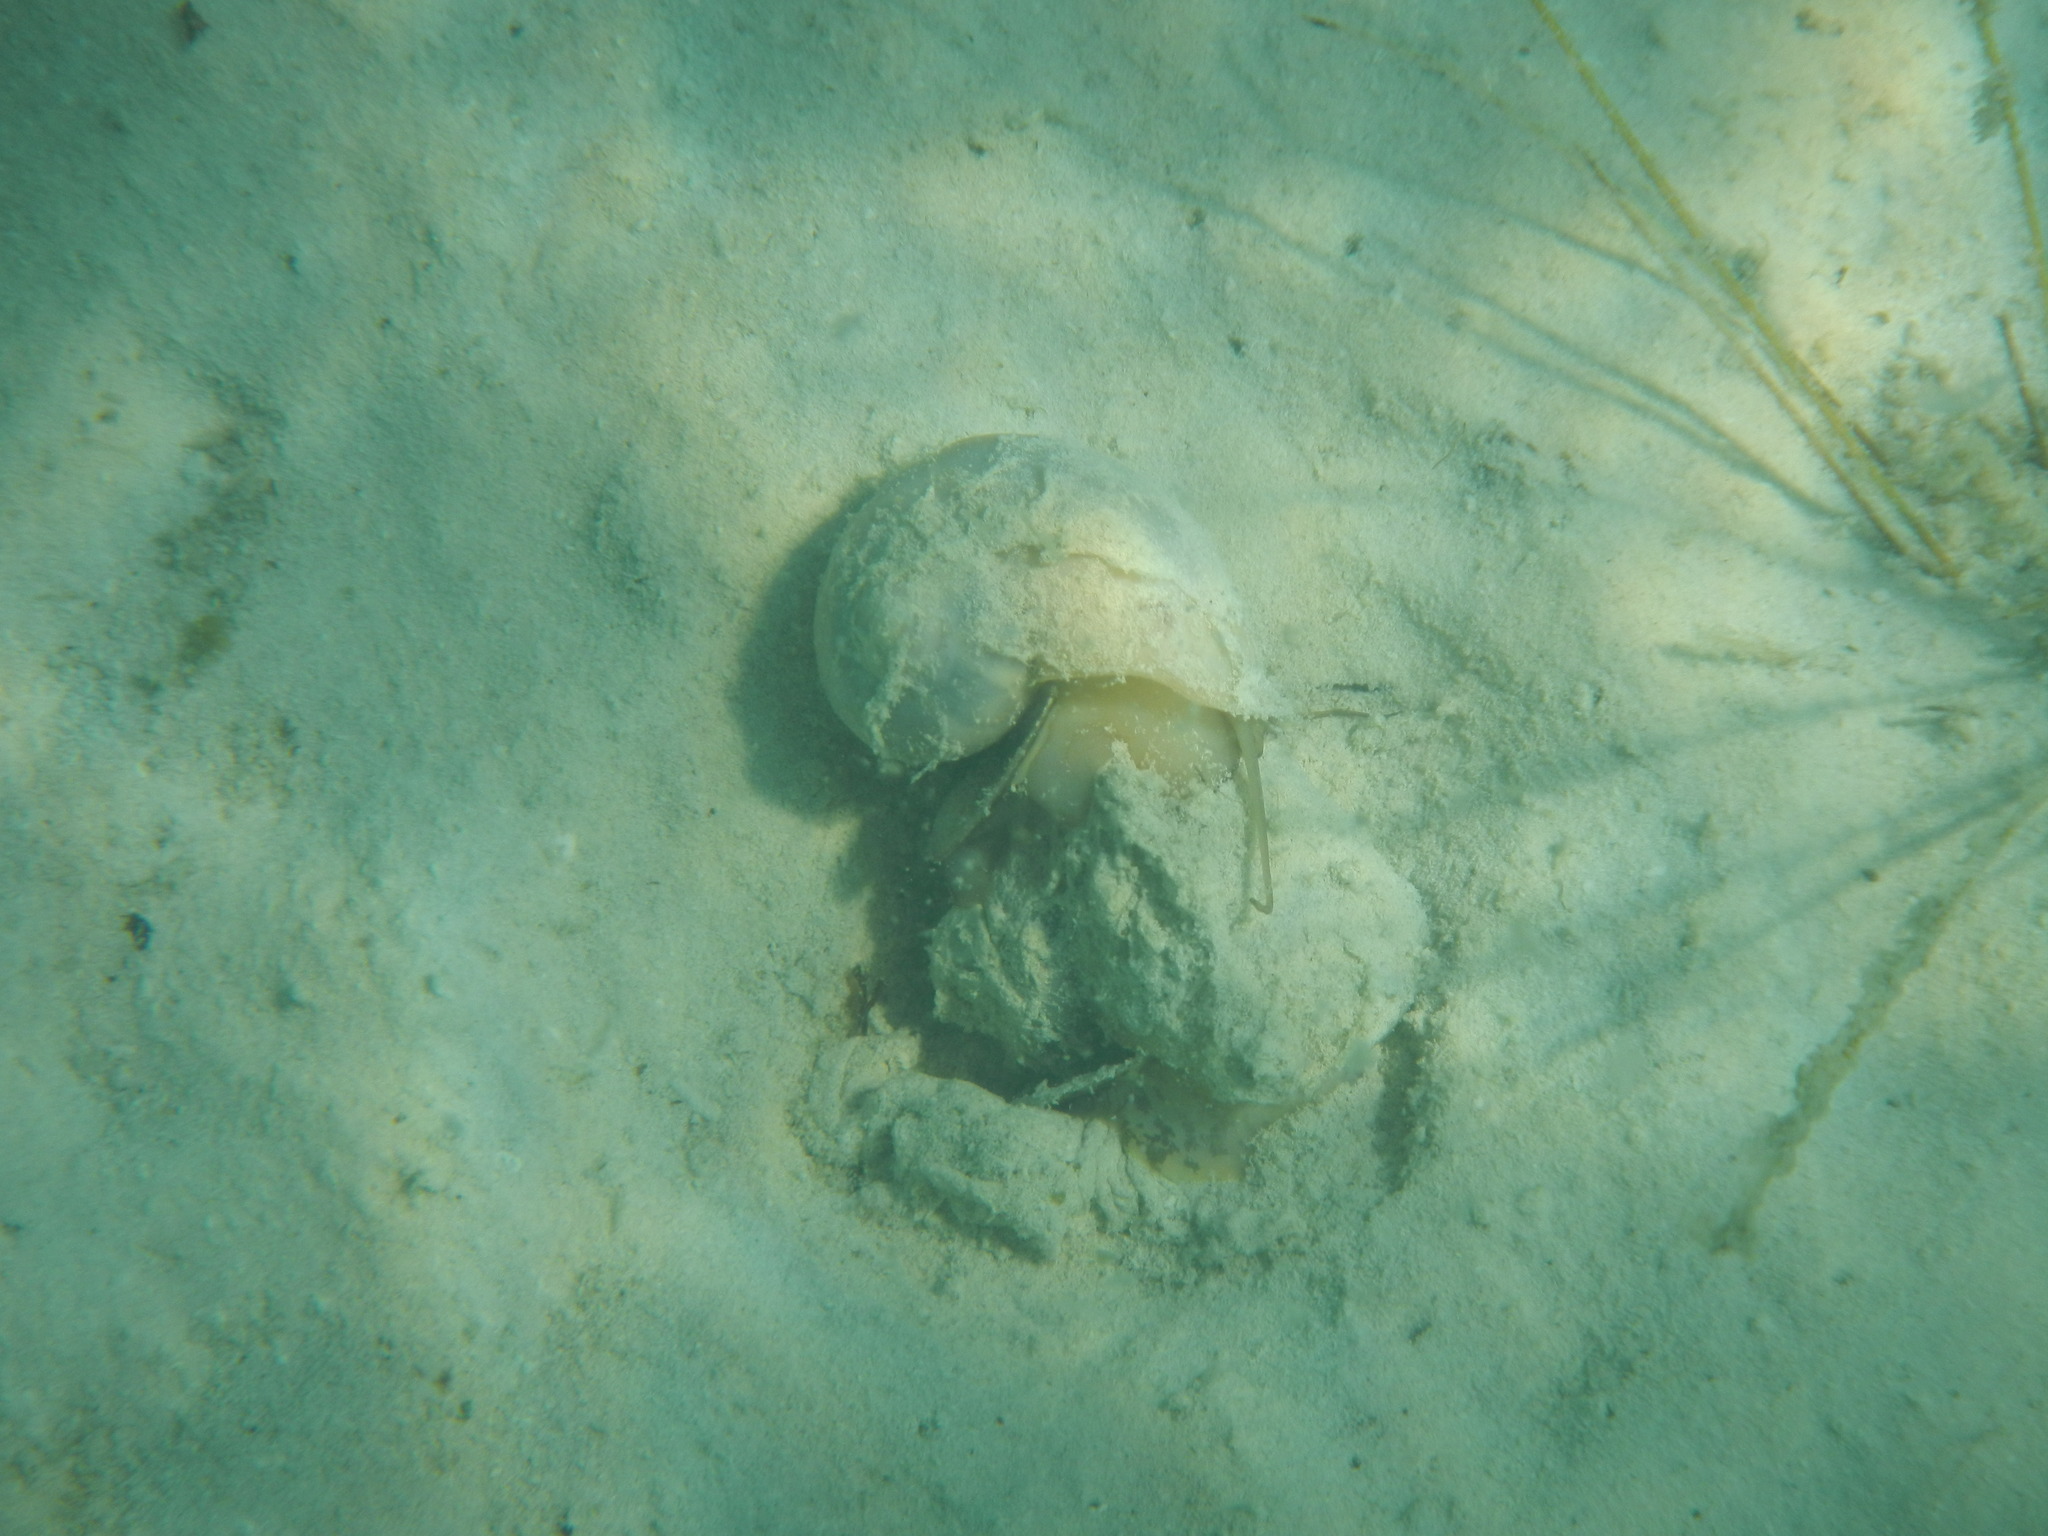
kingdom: Animalia
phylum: Mollusca
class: Gastropoda
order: Architaenioglossa
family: Ampullariidae
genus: Pomacea
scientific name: Pomacea flagellata
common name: Maya apple snail
